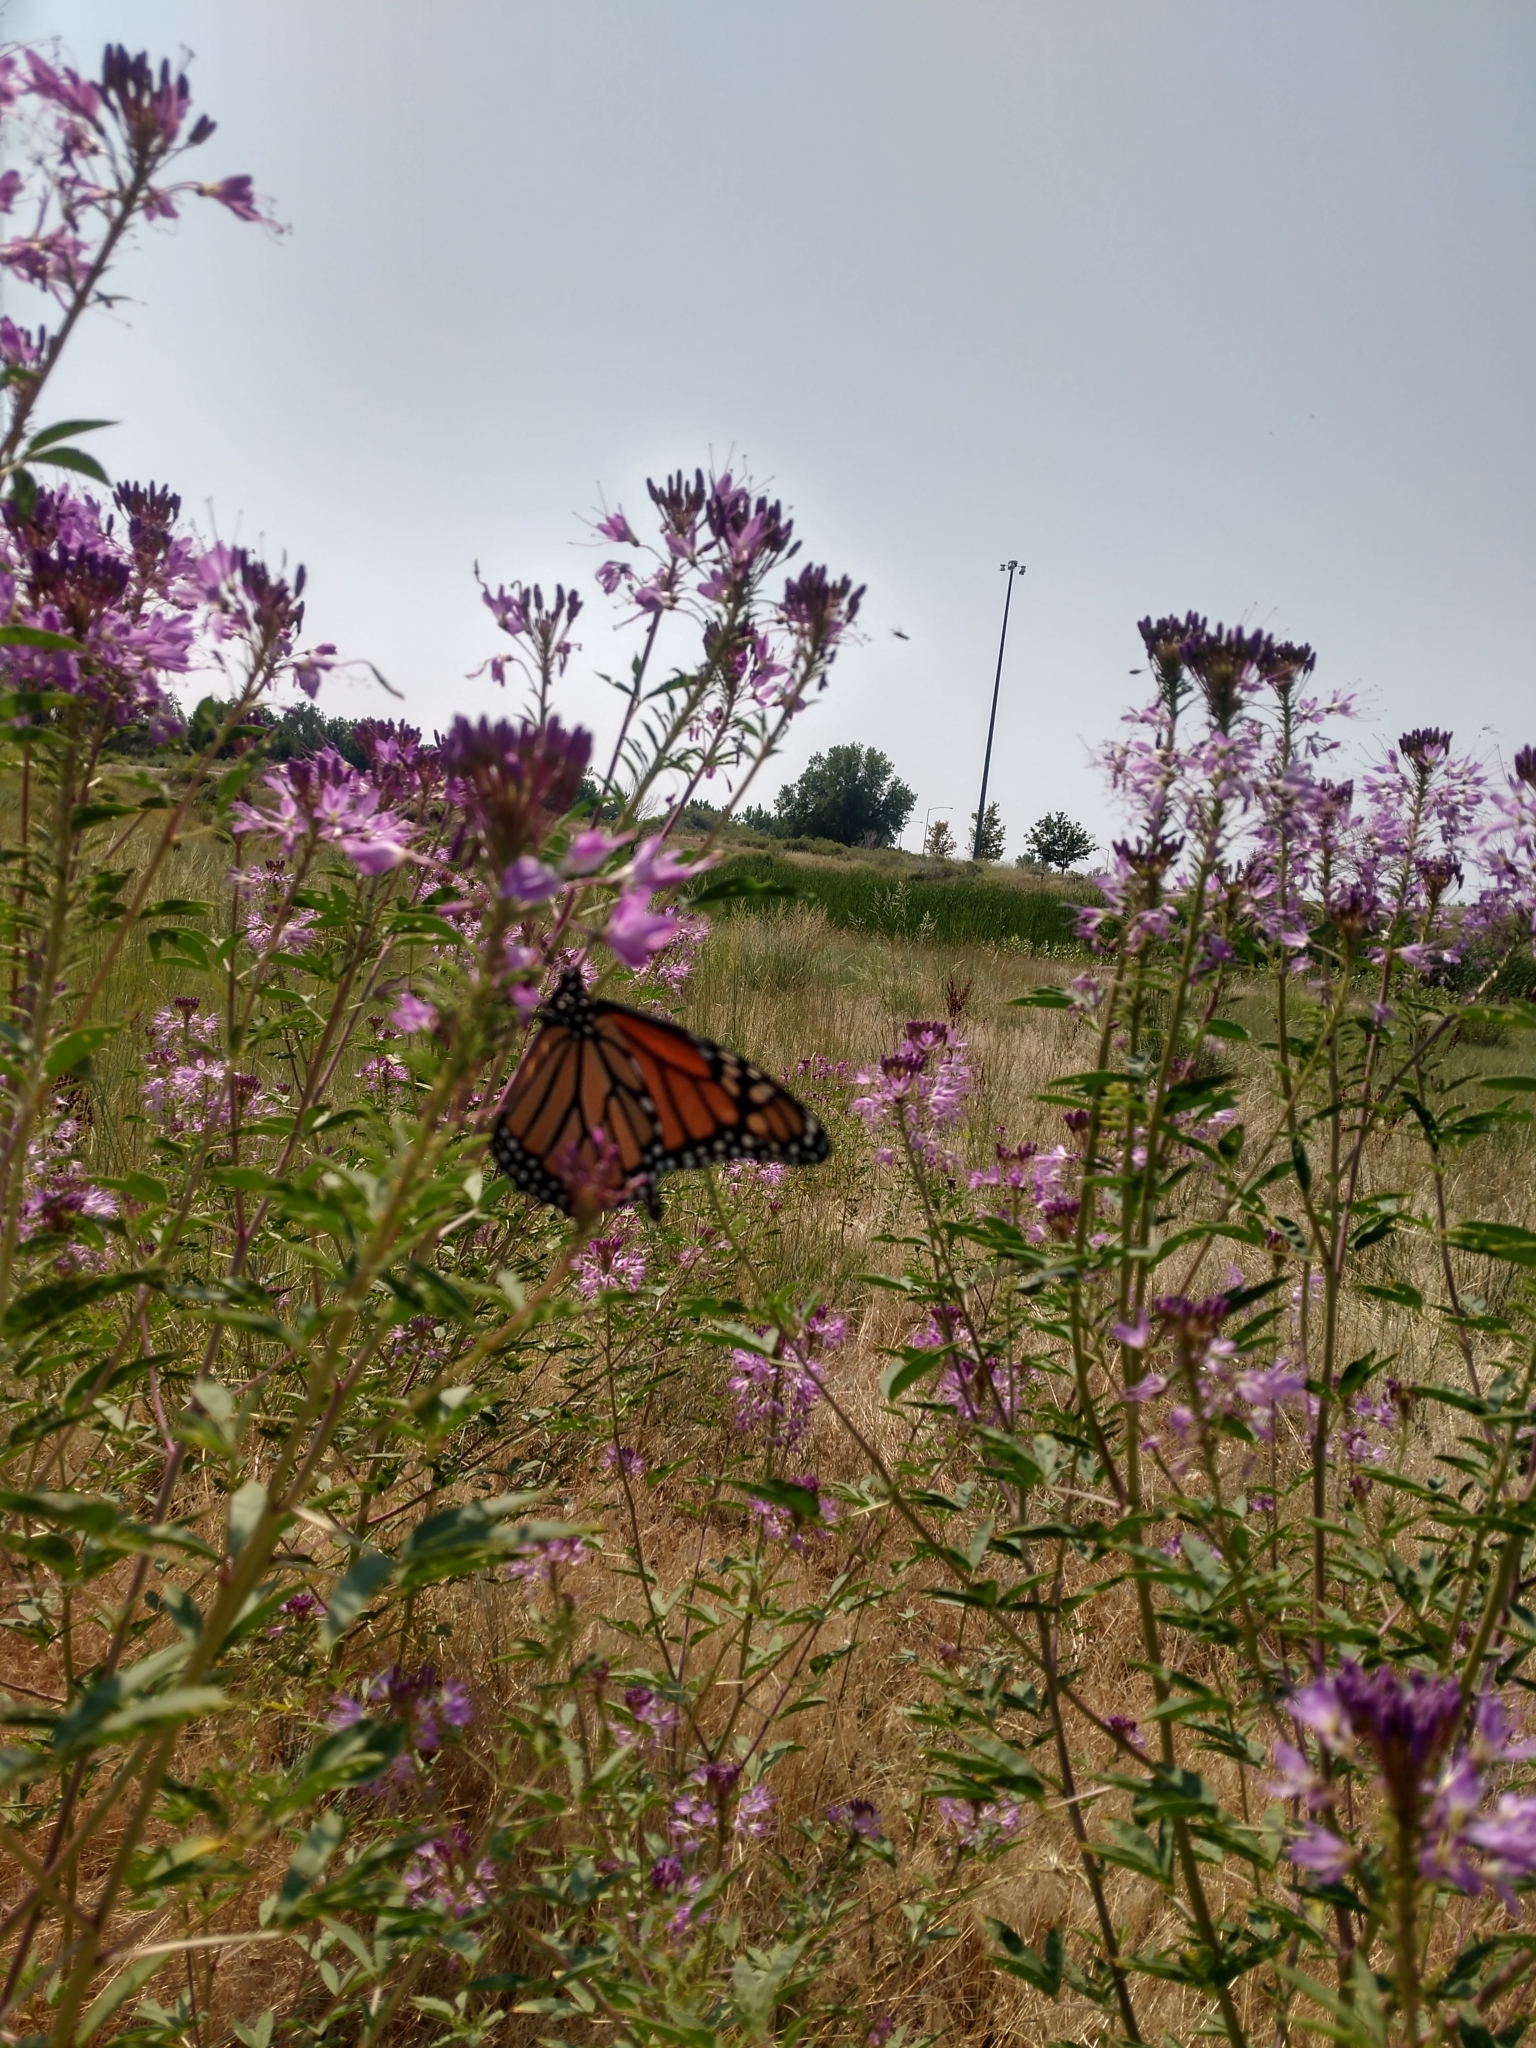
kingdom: Animalia
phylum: Arthropoda
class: Insecta
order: Lepidoptera
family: Nymphalidae
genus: Danaus
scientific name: Danaus plexippus
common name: Monarch
